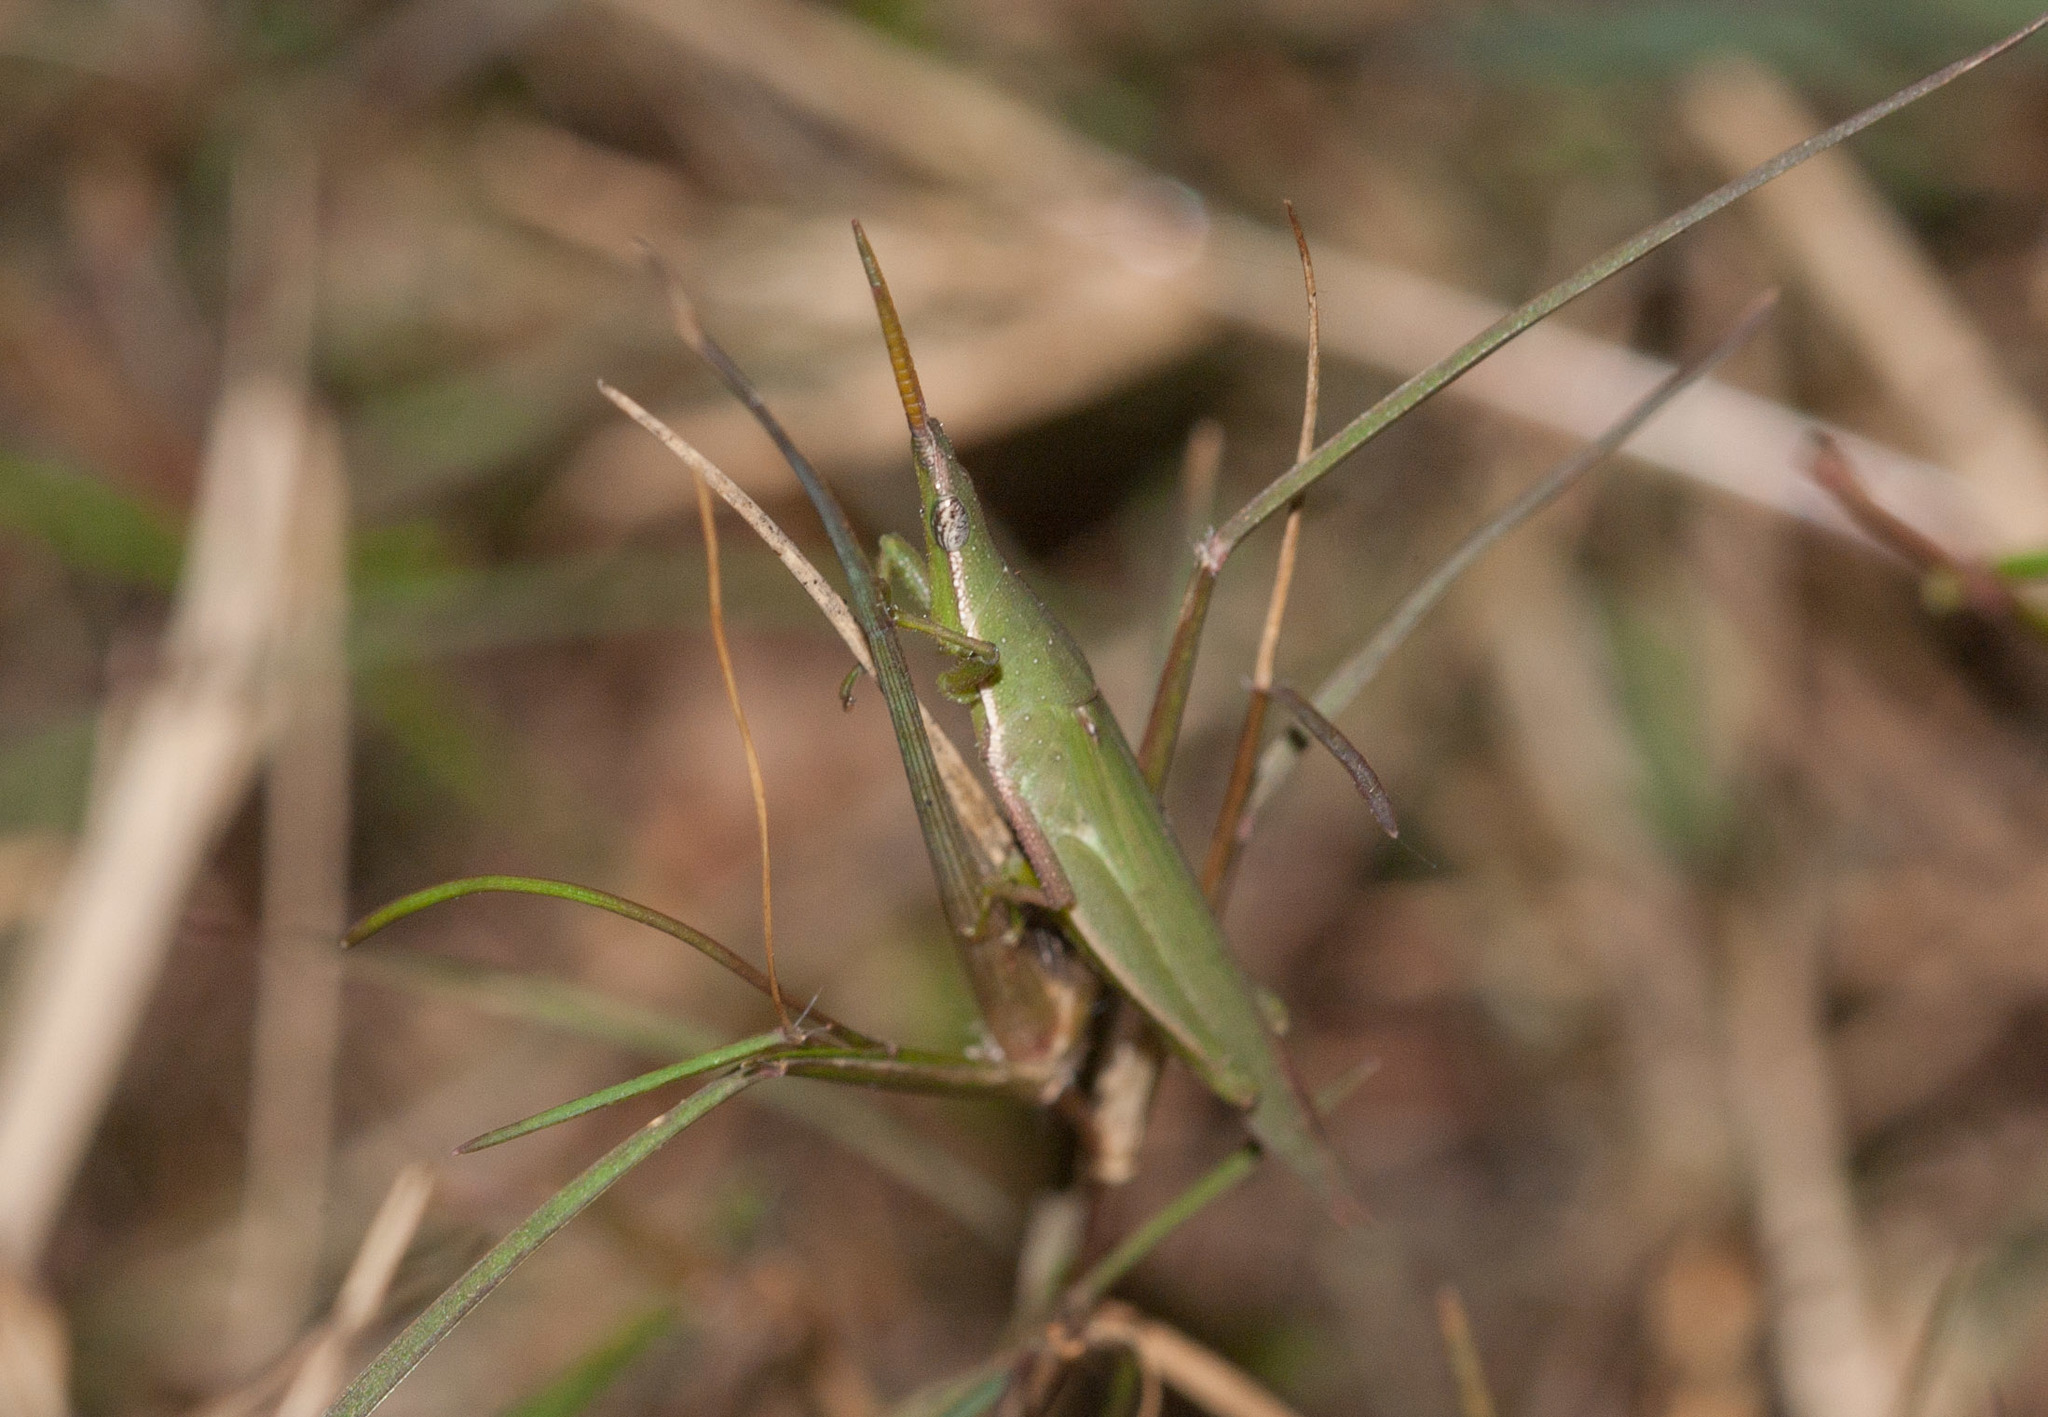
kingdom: Animalia
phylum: Arthropoda
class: Insecta
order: Orthoptera
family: Pyrgomorphidae
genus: Atractomorpha
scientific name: Atractomorpha similis
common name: Northern grass pyrgomorph
